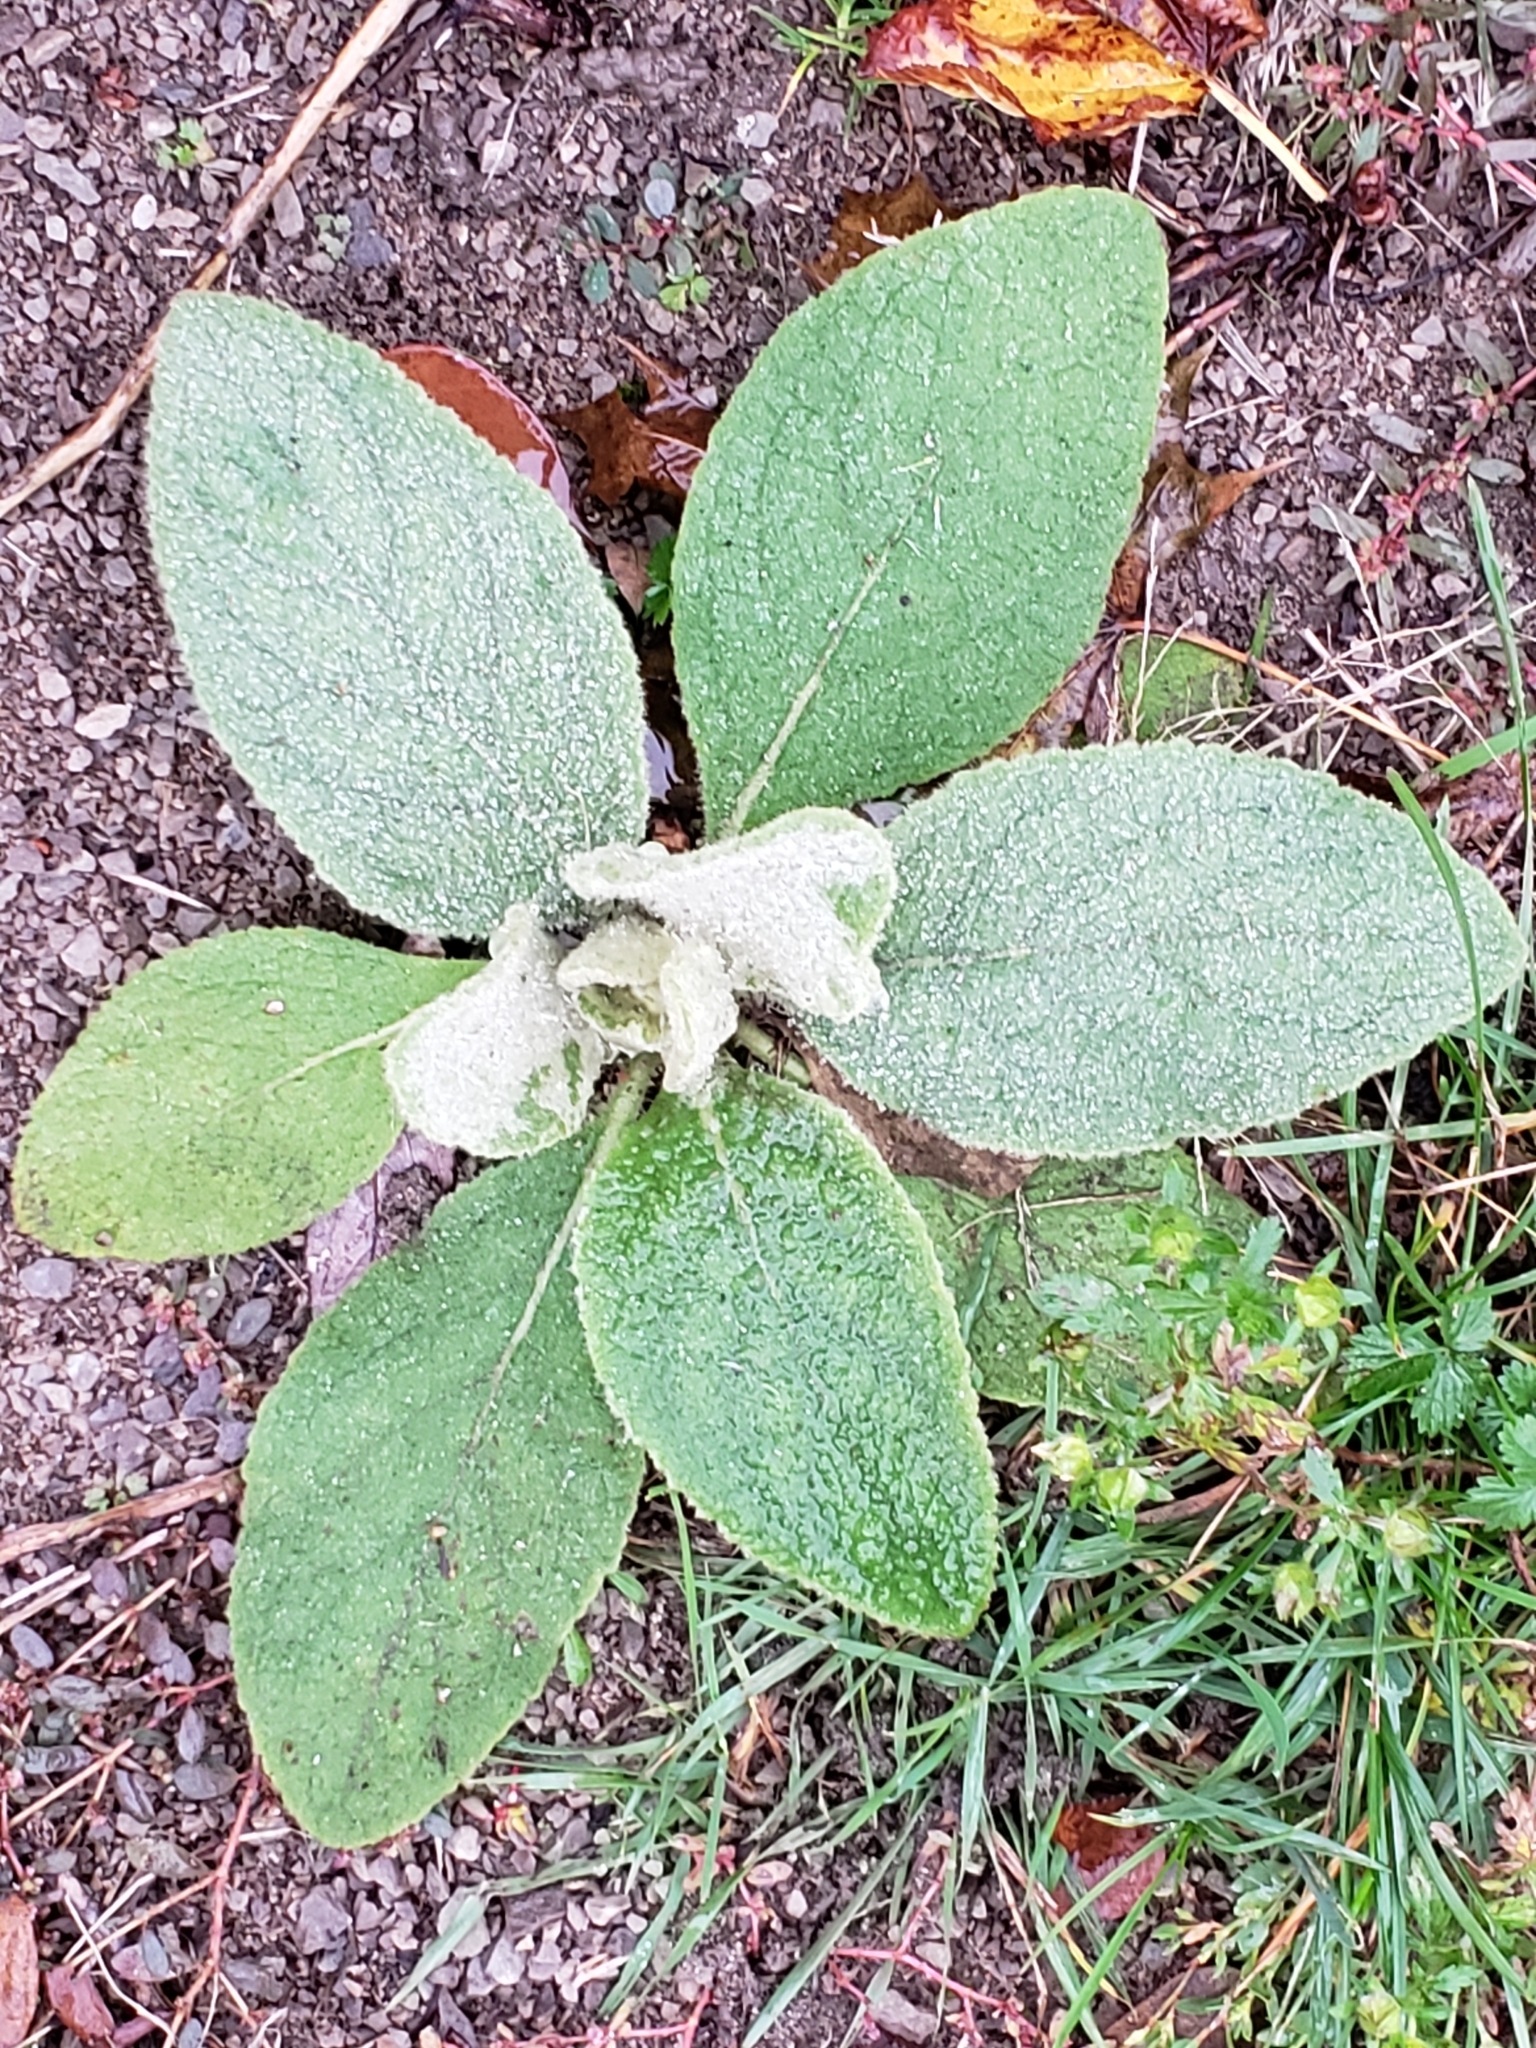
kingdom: Plantae
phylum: Tracheophyta
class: Magnoliopsida
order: Lamiales
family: Scrophulariaceae
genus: Verbascum
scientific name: Verbascum thapsus
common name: Common mullein
